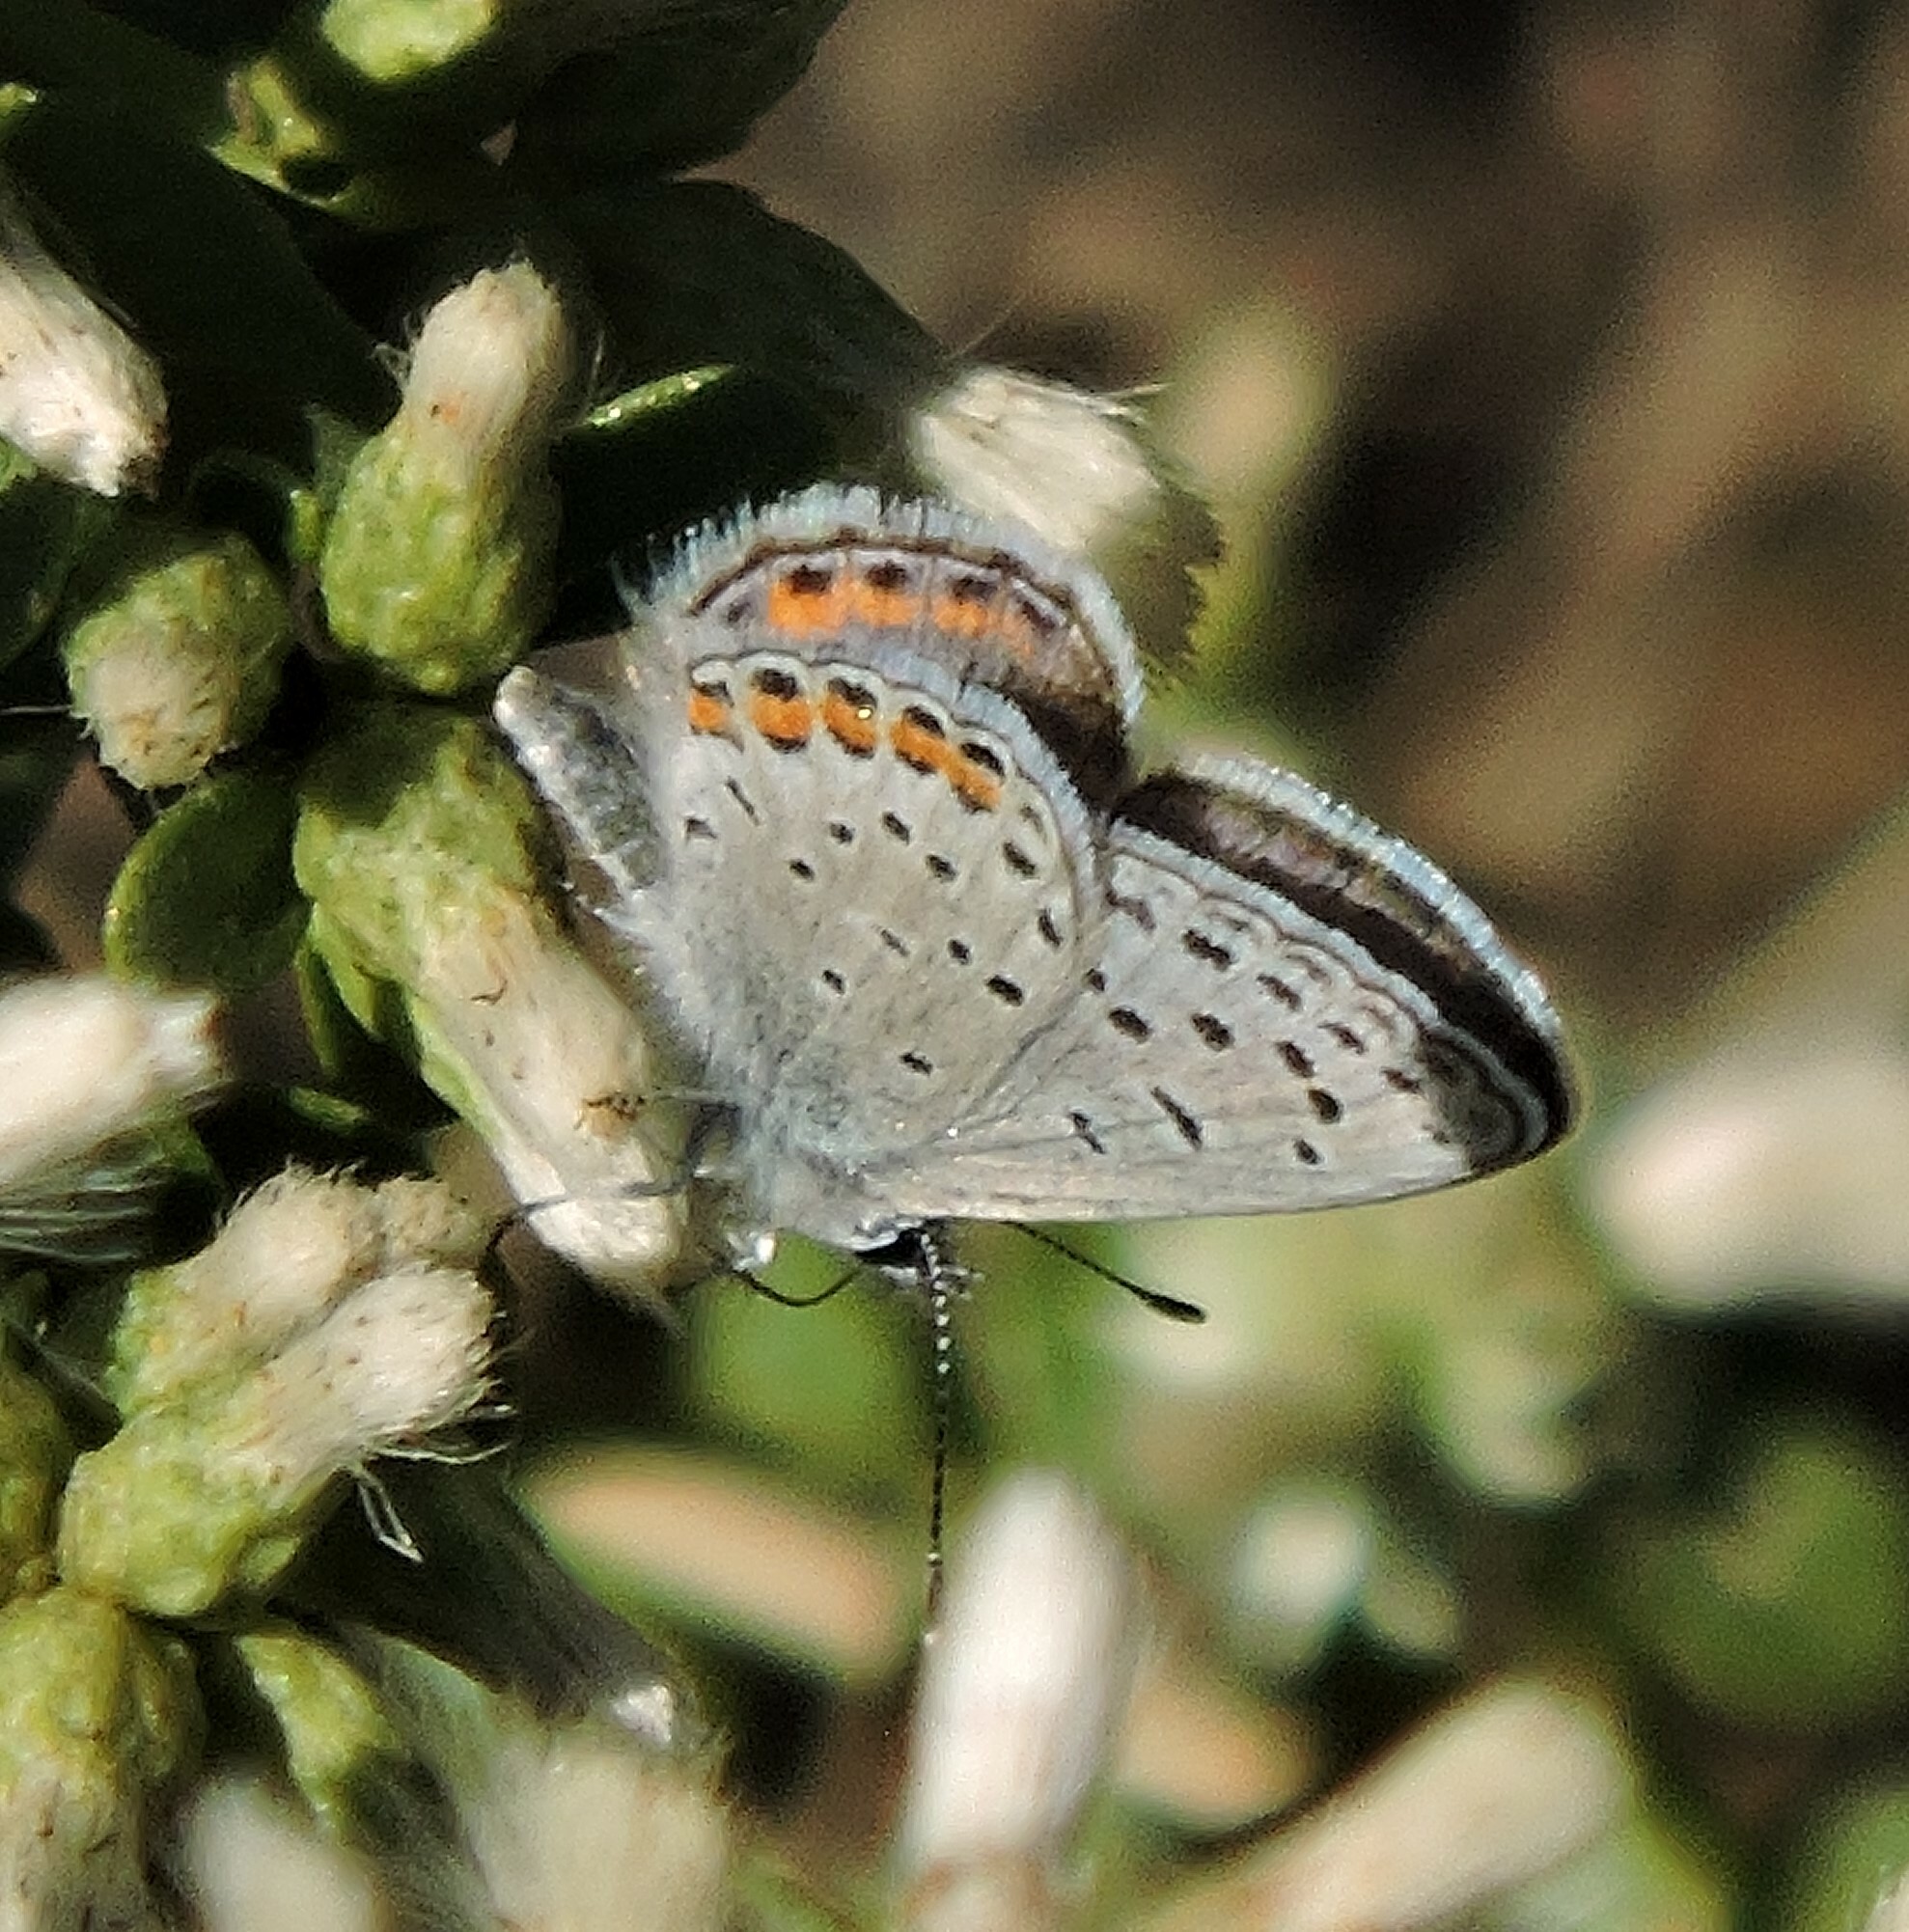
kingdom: Animalia
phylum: Arthropoda
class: Insecta
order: Lepidoptera
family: Lycaenidae
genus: Icaricia
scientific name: Icaricia acmon
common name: Acmon blue
